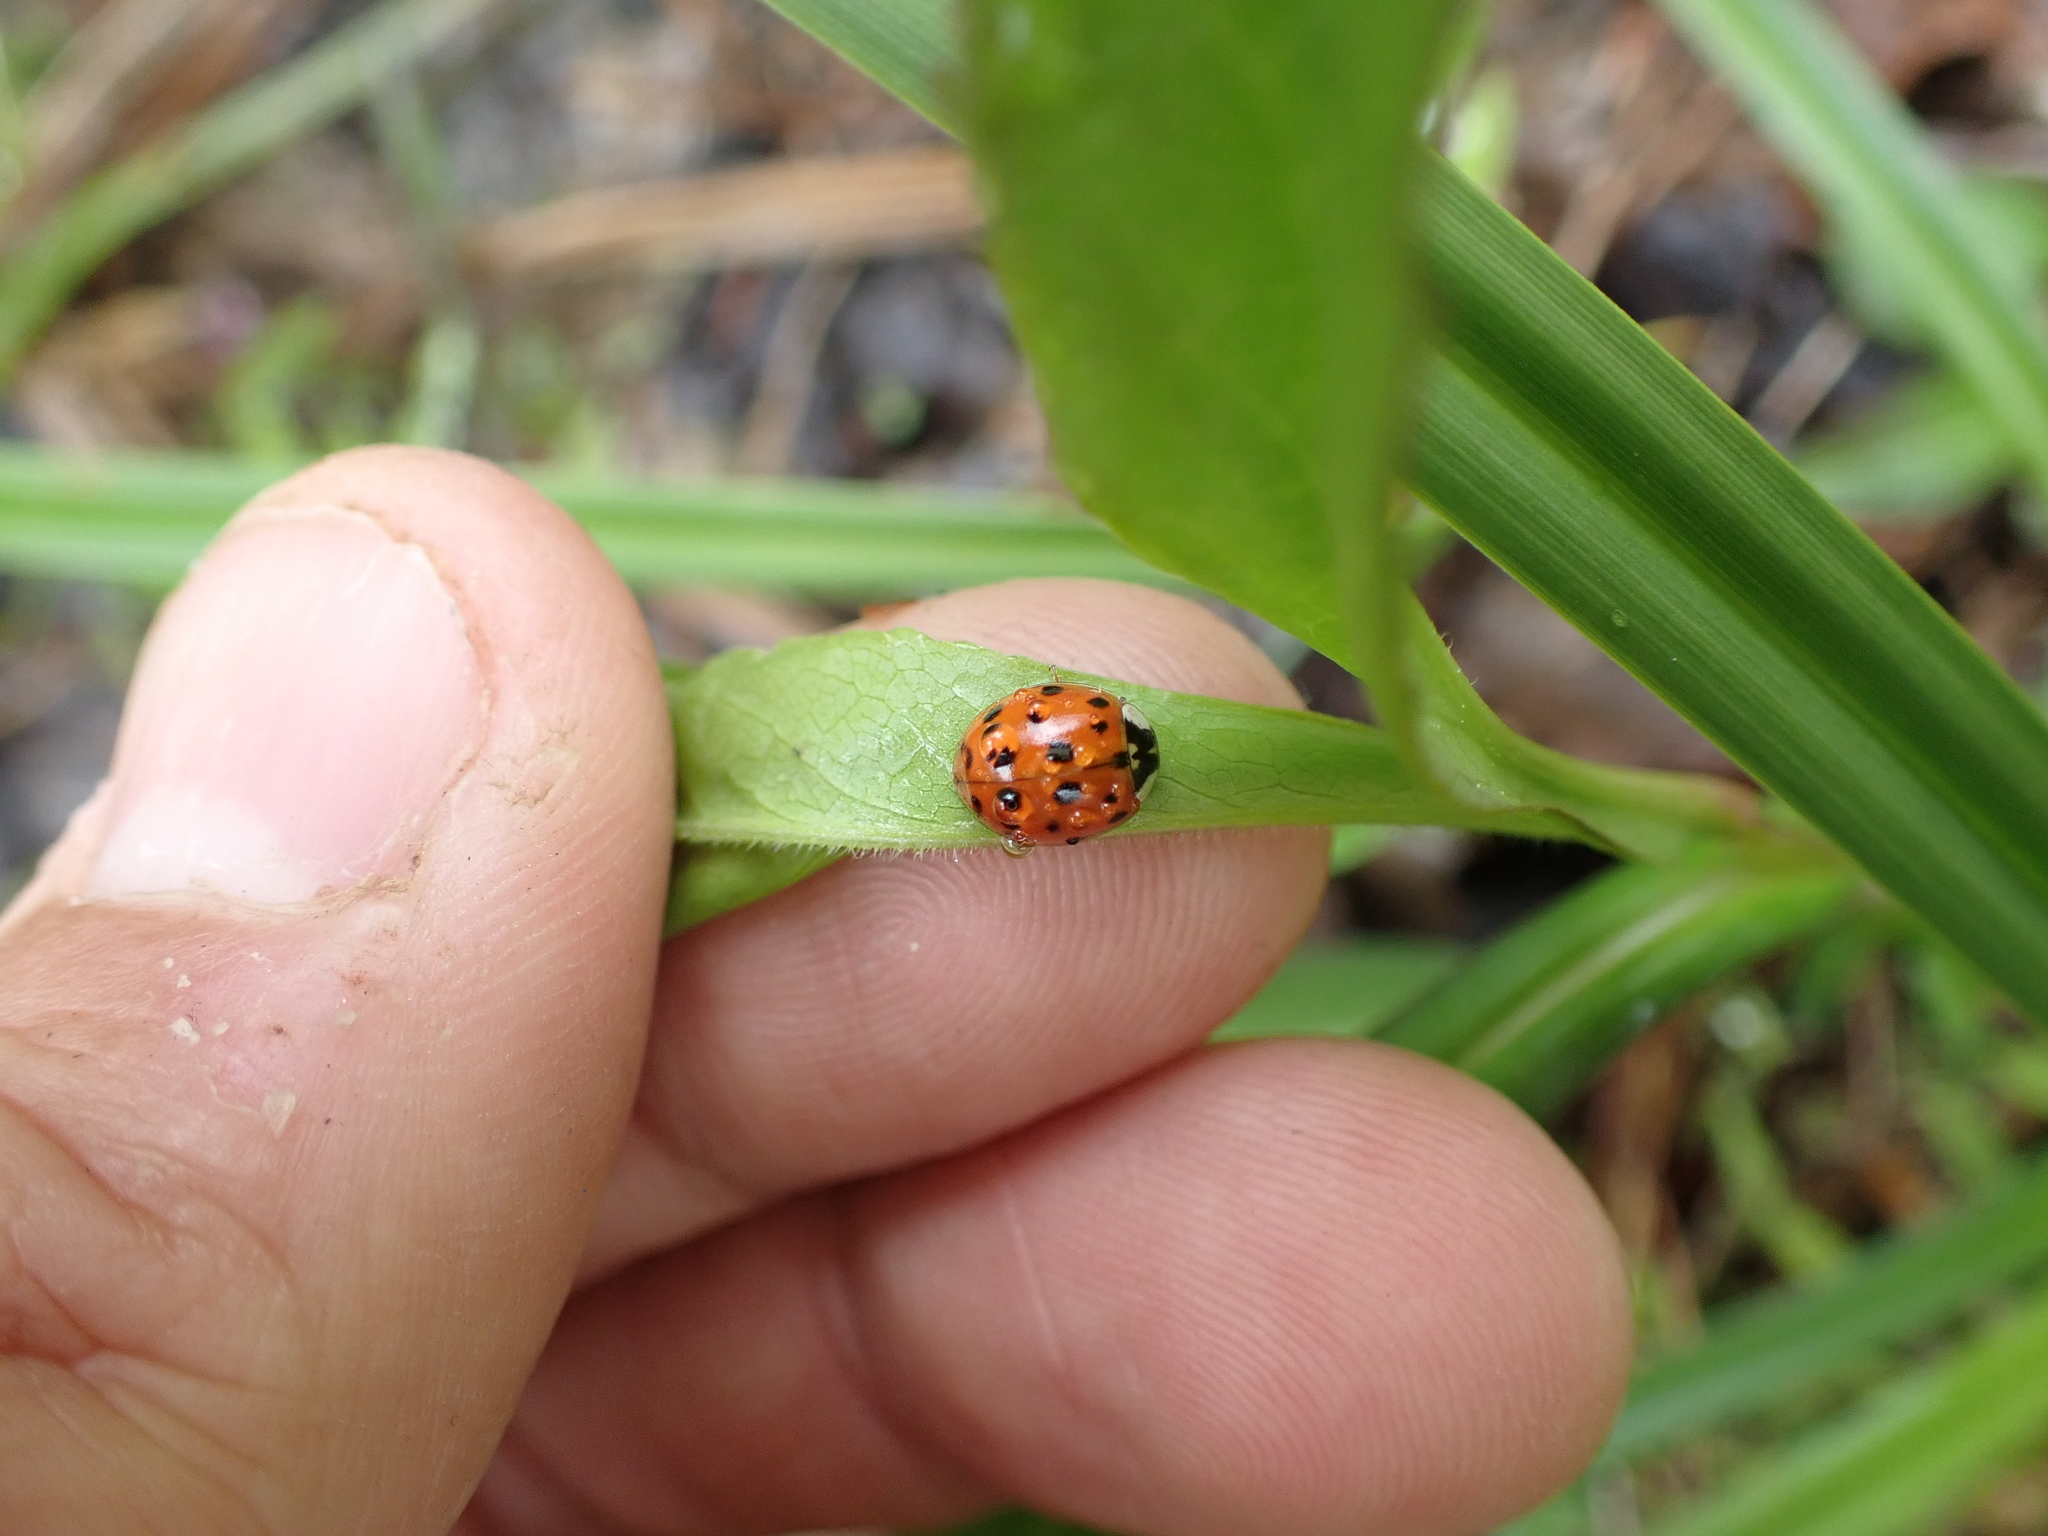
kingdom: Animalia
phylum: Arthropoda
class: Insecta
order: Coleoptera
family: Coccinellidae
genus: Harmonia
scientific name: Harmonia axyridis
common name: Harlequin ladybird
